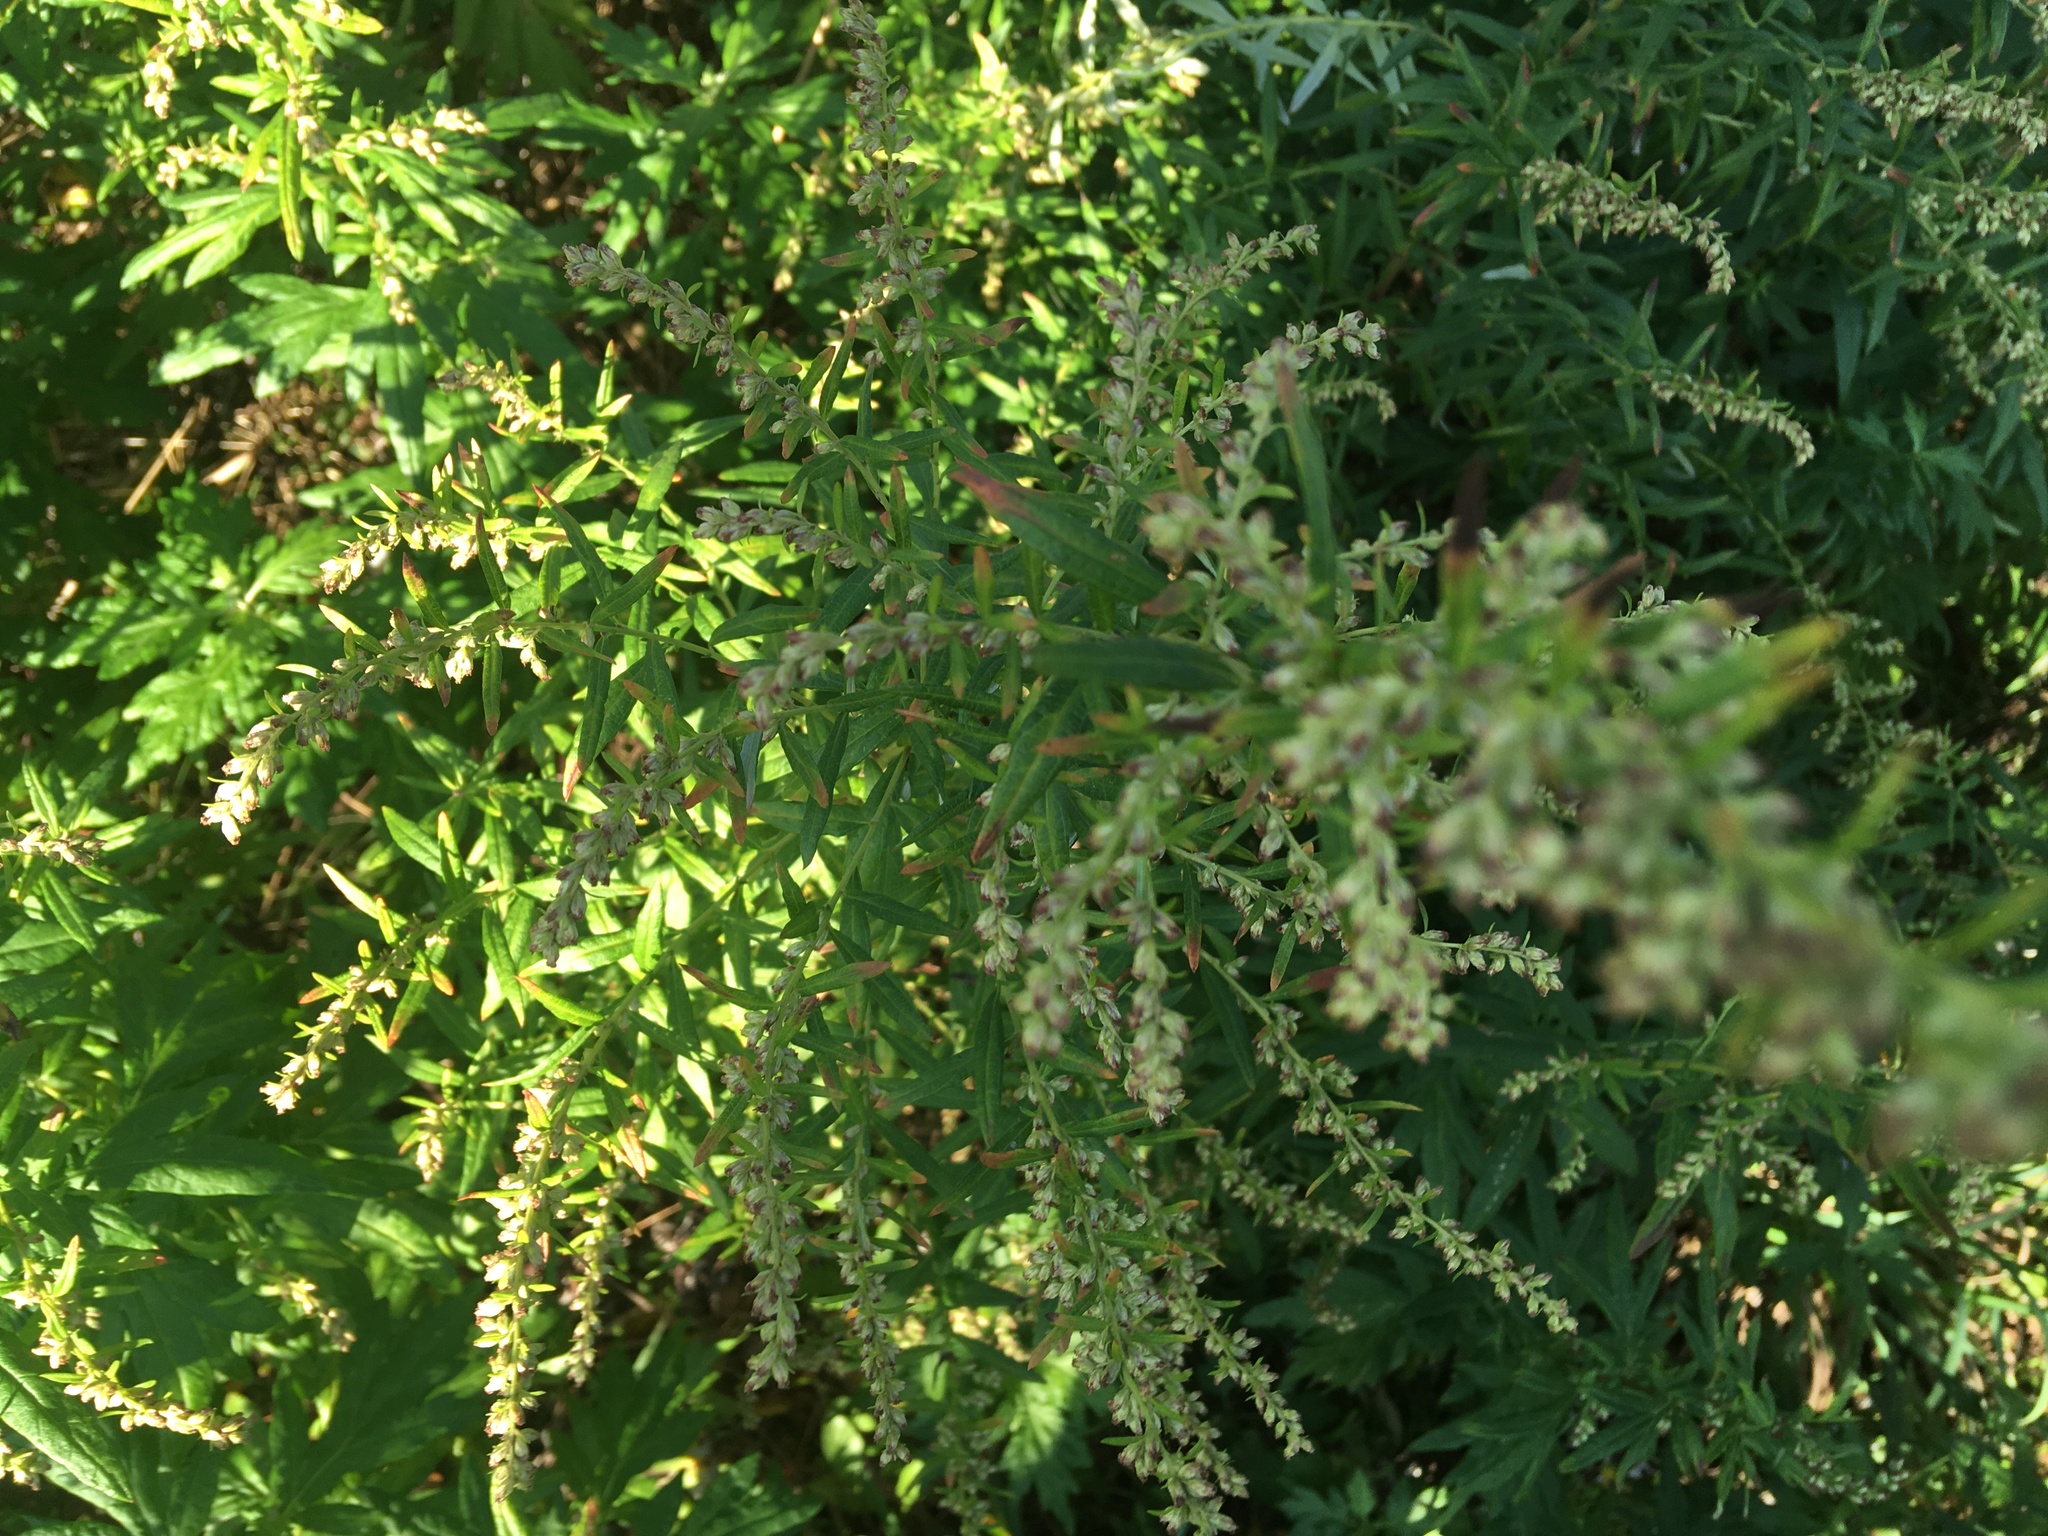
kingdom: Plantae
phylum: Tracheophyta
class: Magnoliopsida
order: Asterales
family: Asteraceae
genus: Artemisia
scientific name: Artemisia vulgaris
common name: Mugwort
